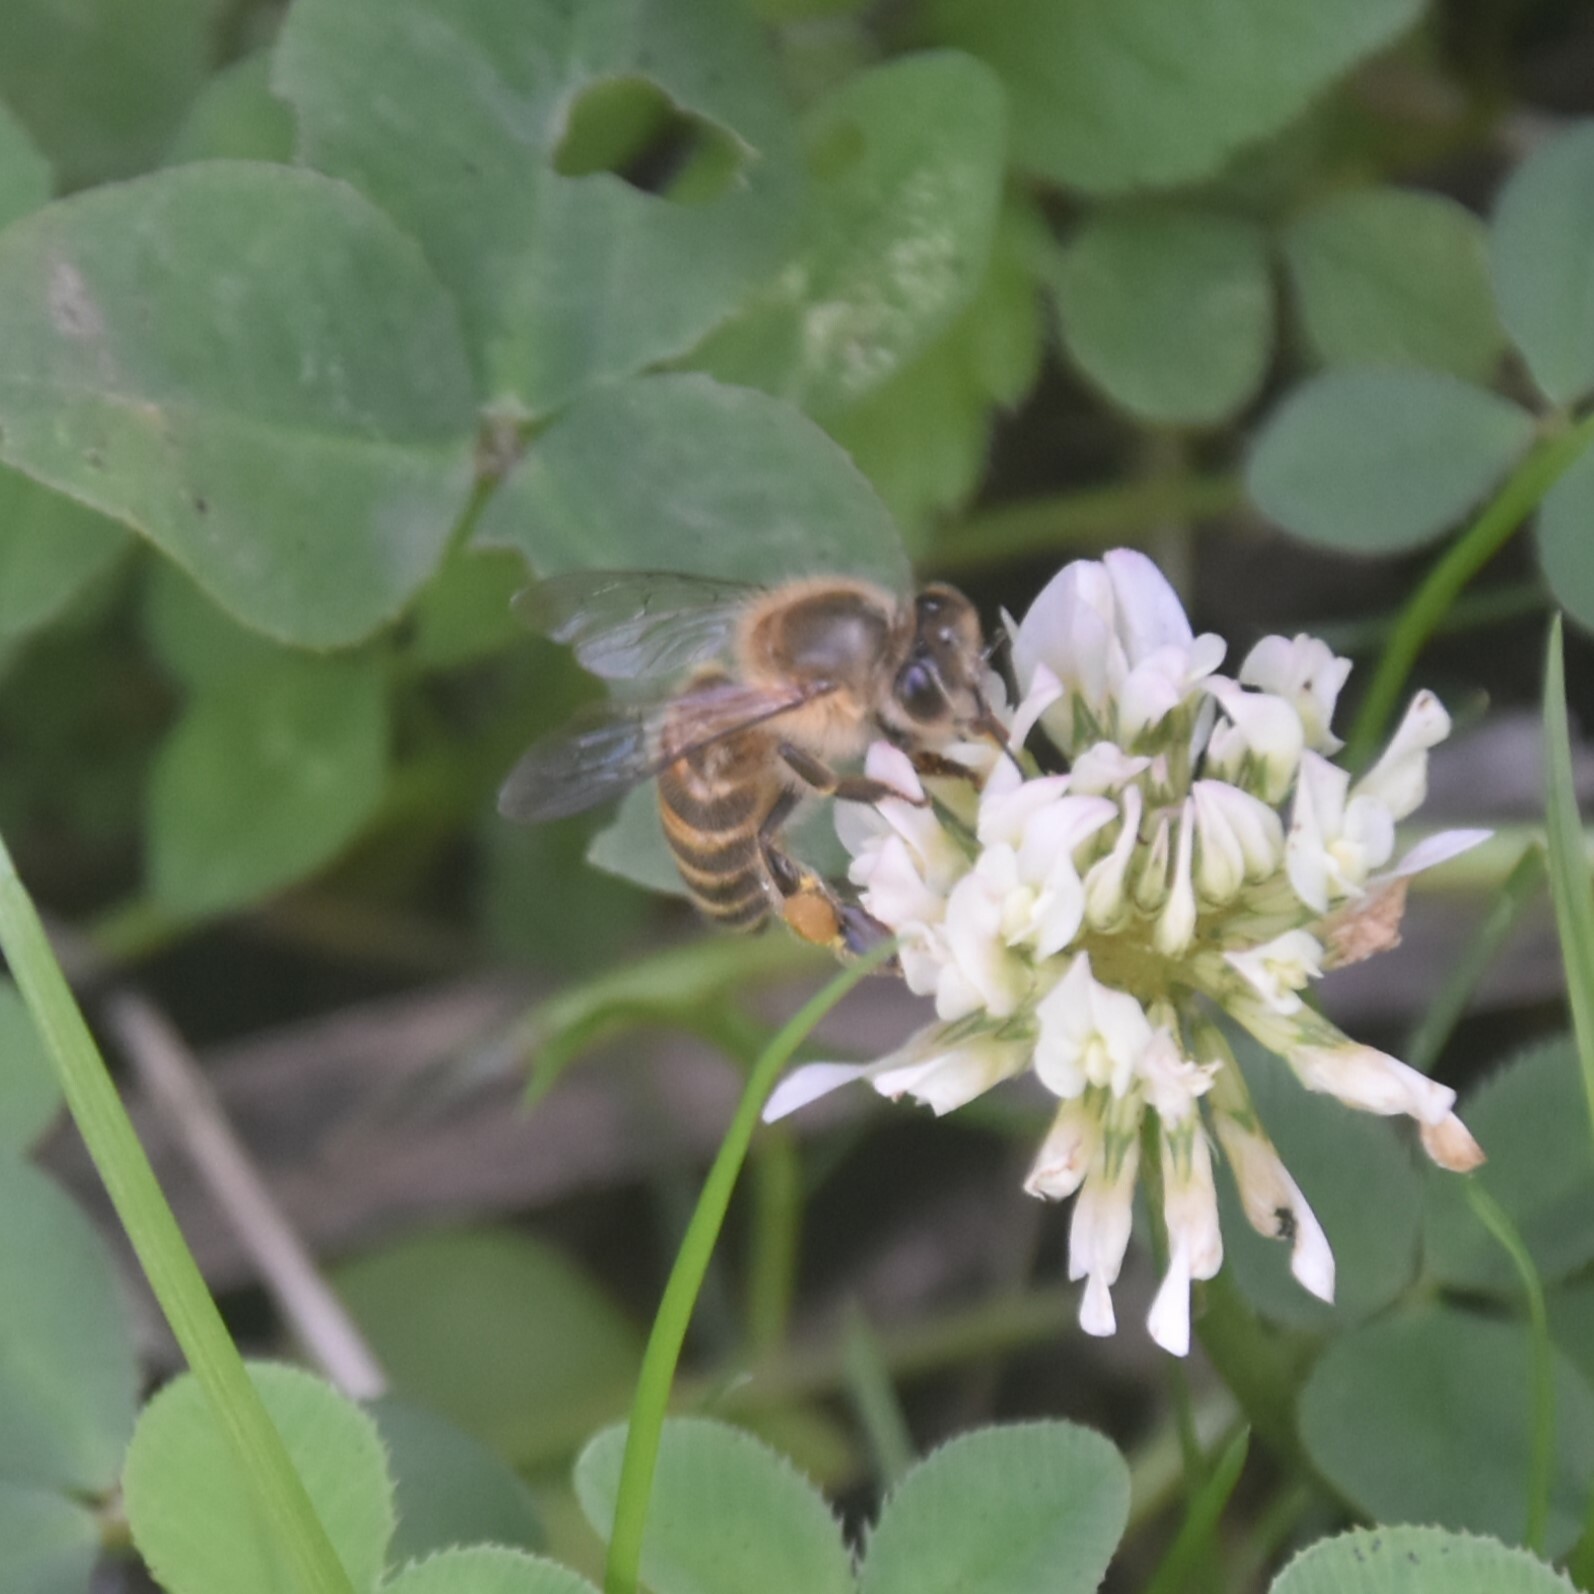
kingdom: Animalia
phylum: Arthropoda
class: Insecta
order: Hymenoptera
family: Apidae
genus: Apis
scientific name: Apis cerana
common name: Honey bee
